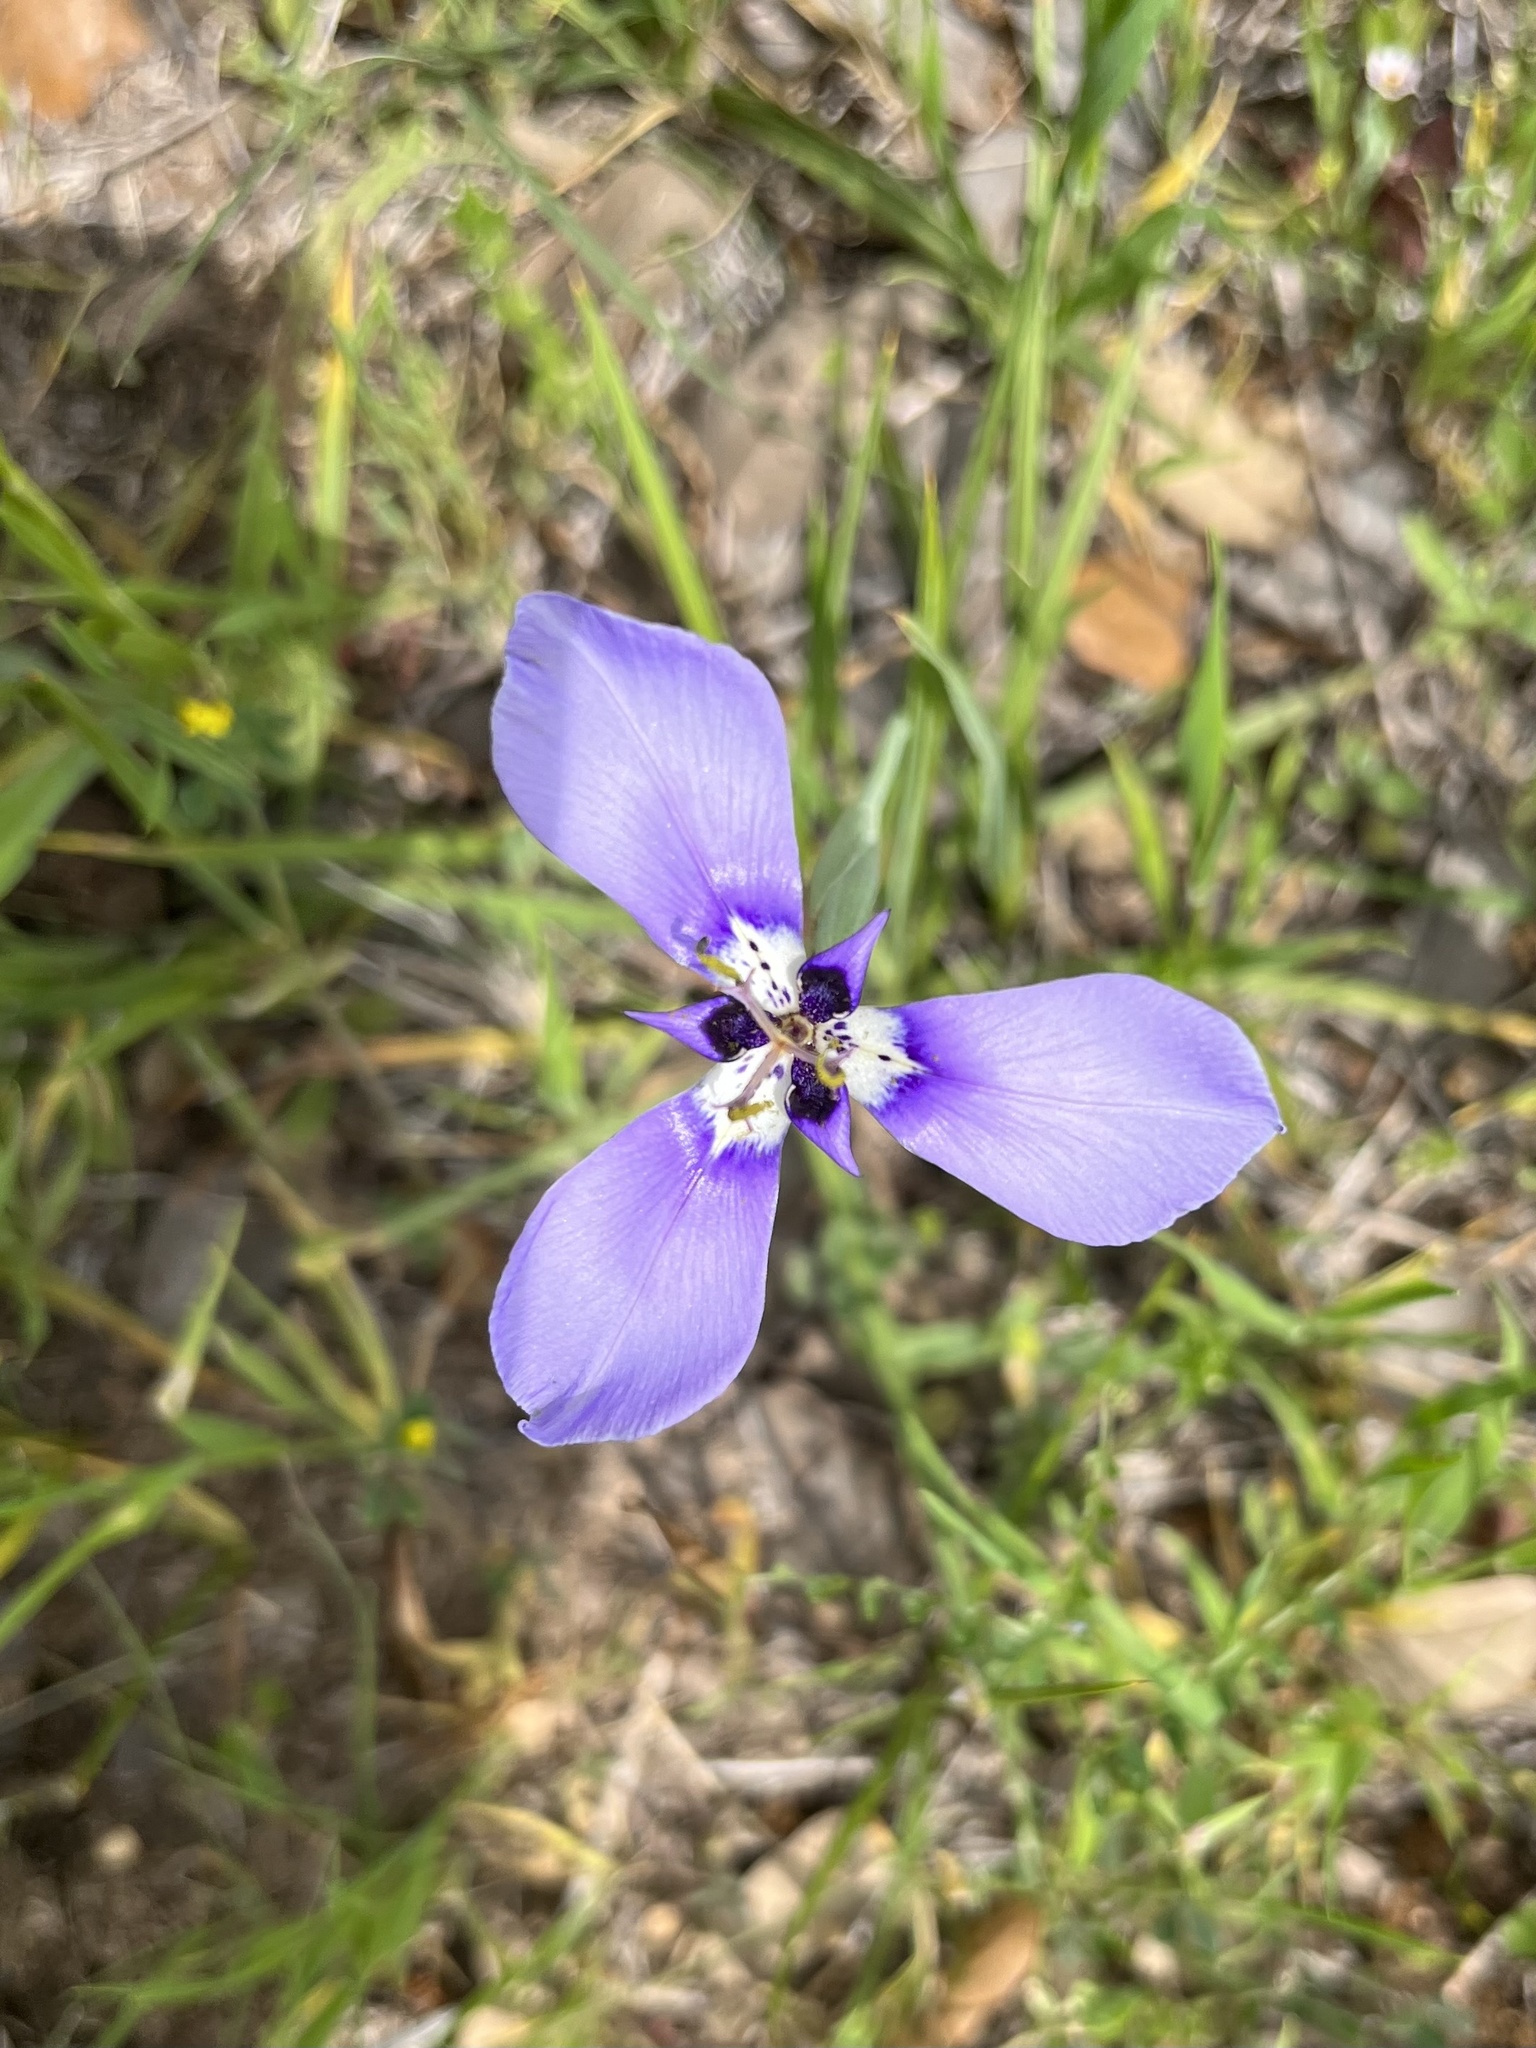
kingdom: Plantae
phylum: Tracheophyta
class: Liliopsida
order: Asparagales
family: Iridaceae
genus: Herbertia
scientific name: Herbertia lahue
